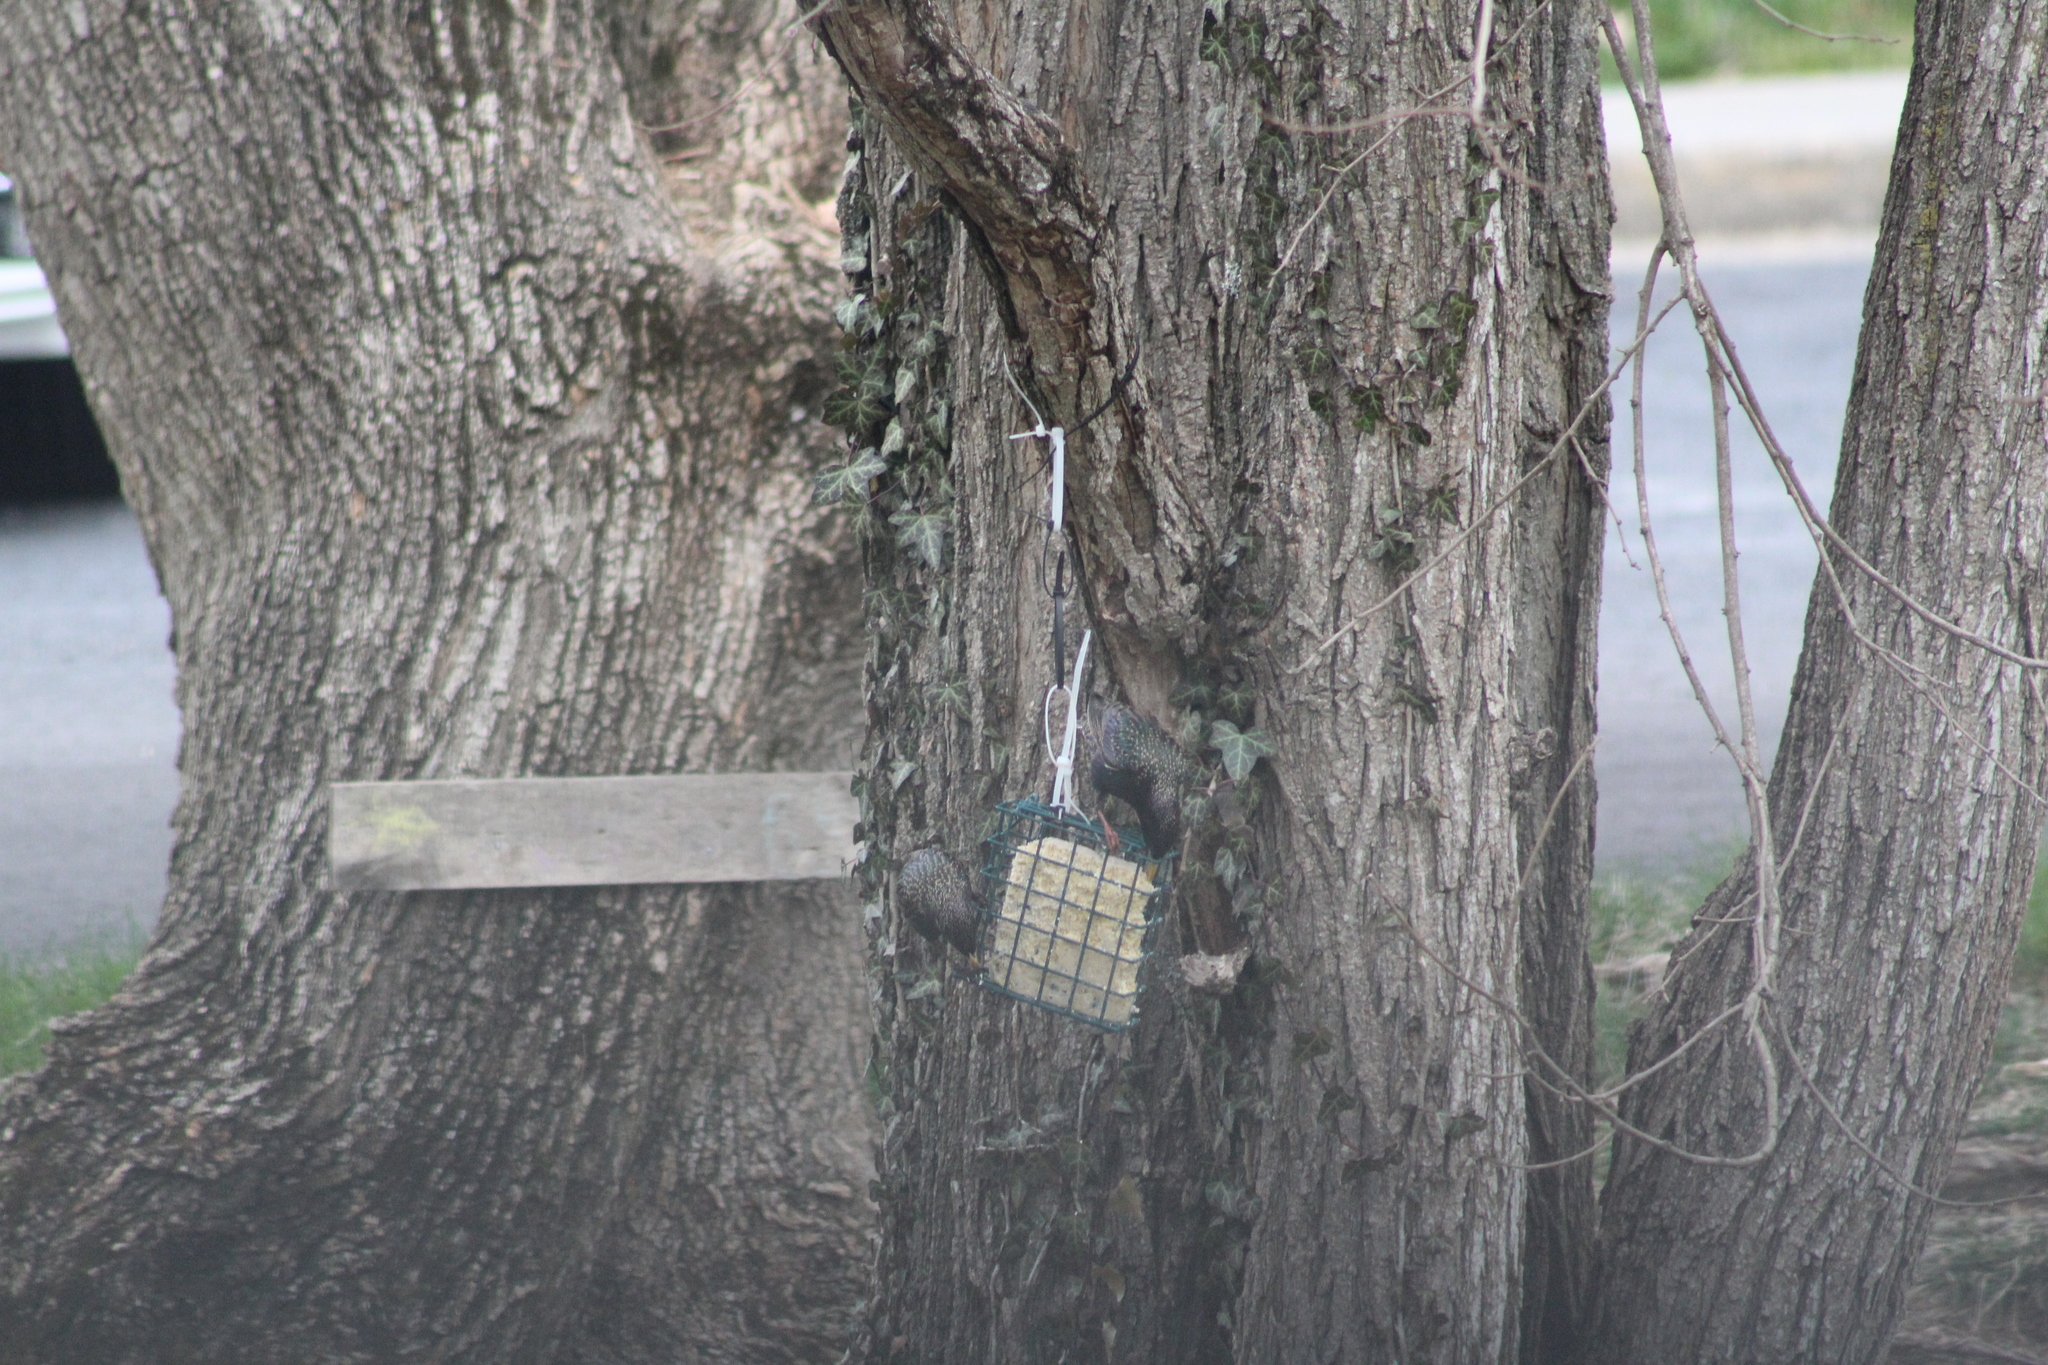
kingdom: Animalia
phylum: Chordata
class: Aves
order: Passeriformes
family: Sturnidae
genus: Sturnus
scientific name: Sturnus vulgaris
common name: Common starling
